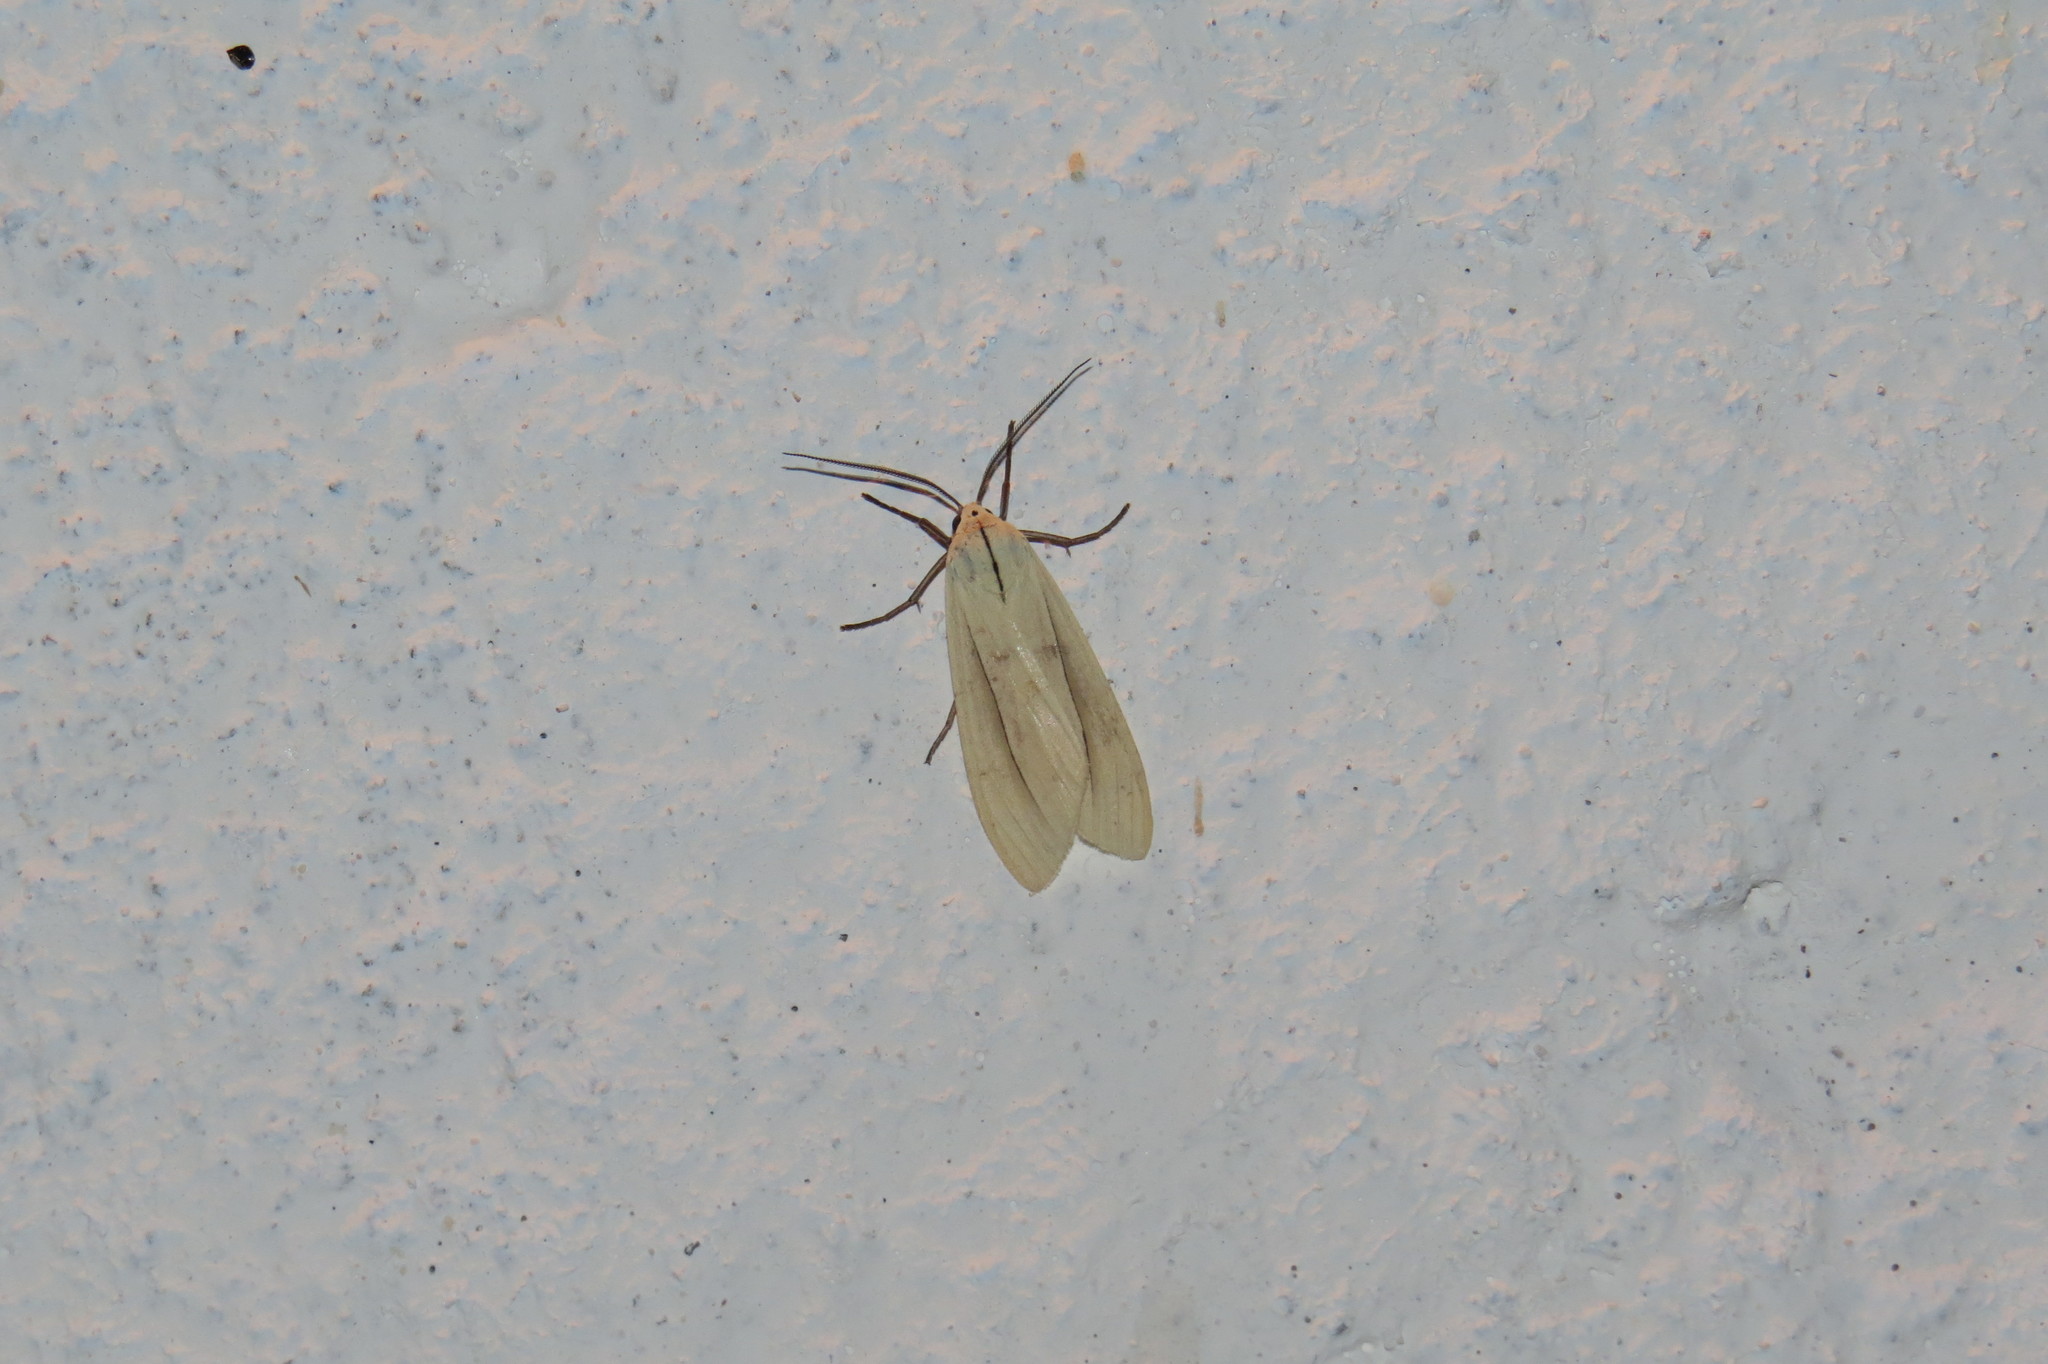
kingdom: Animalia
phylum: Arthropoda
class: Insecta
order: Lepidoptera
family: Erebidae
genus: Biturix
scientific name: Biturix rectilinea
